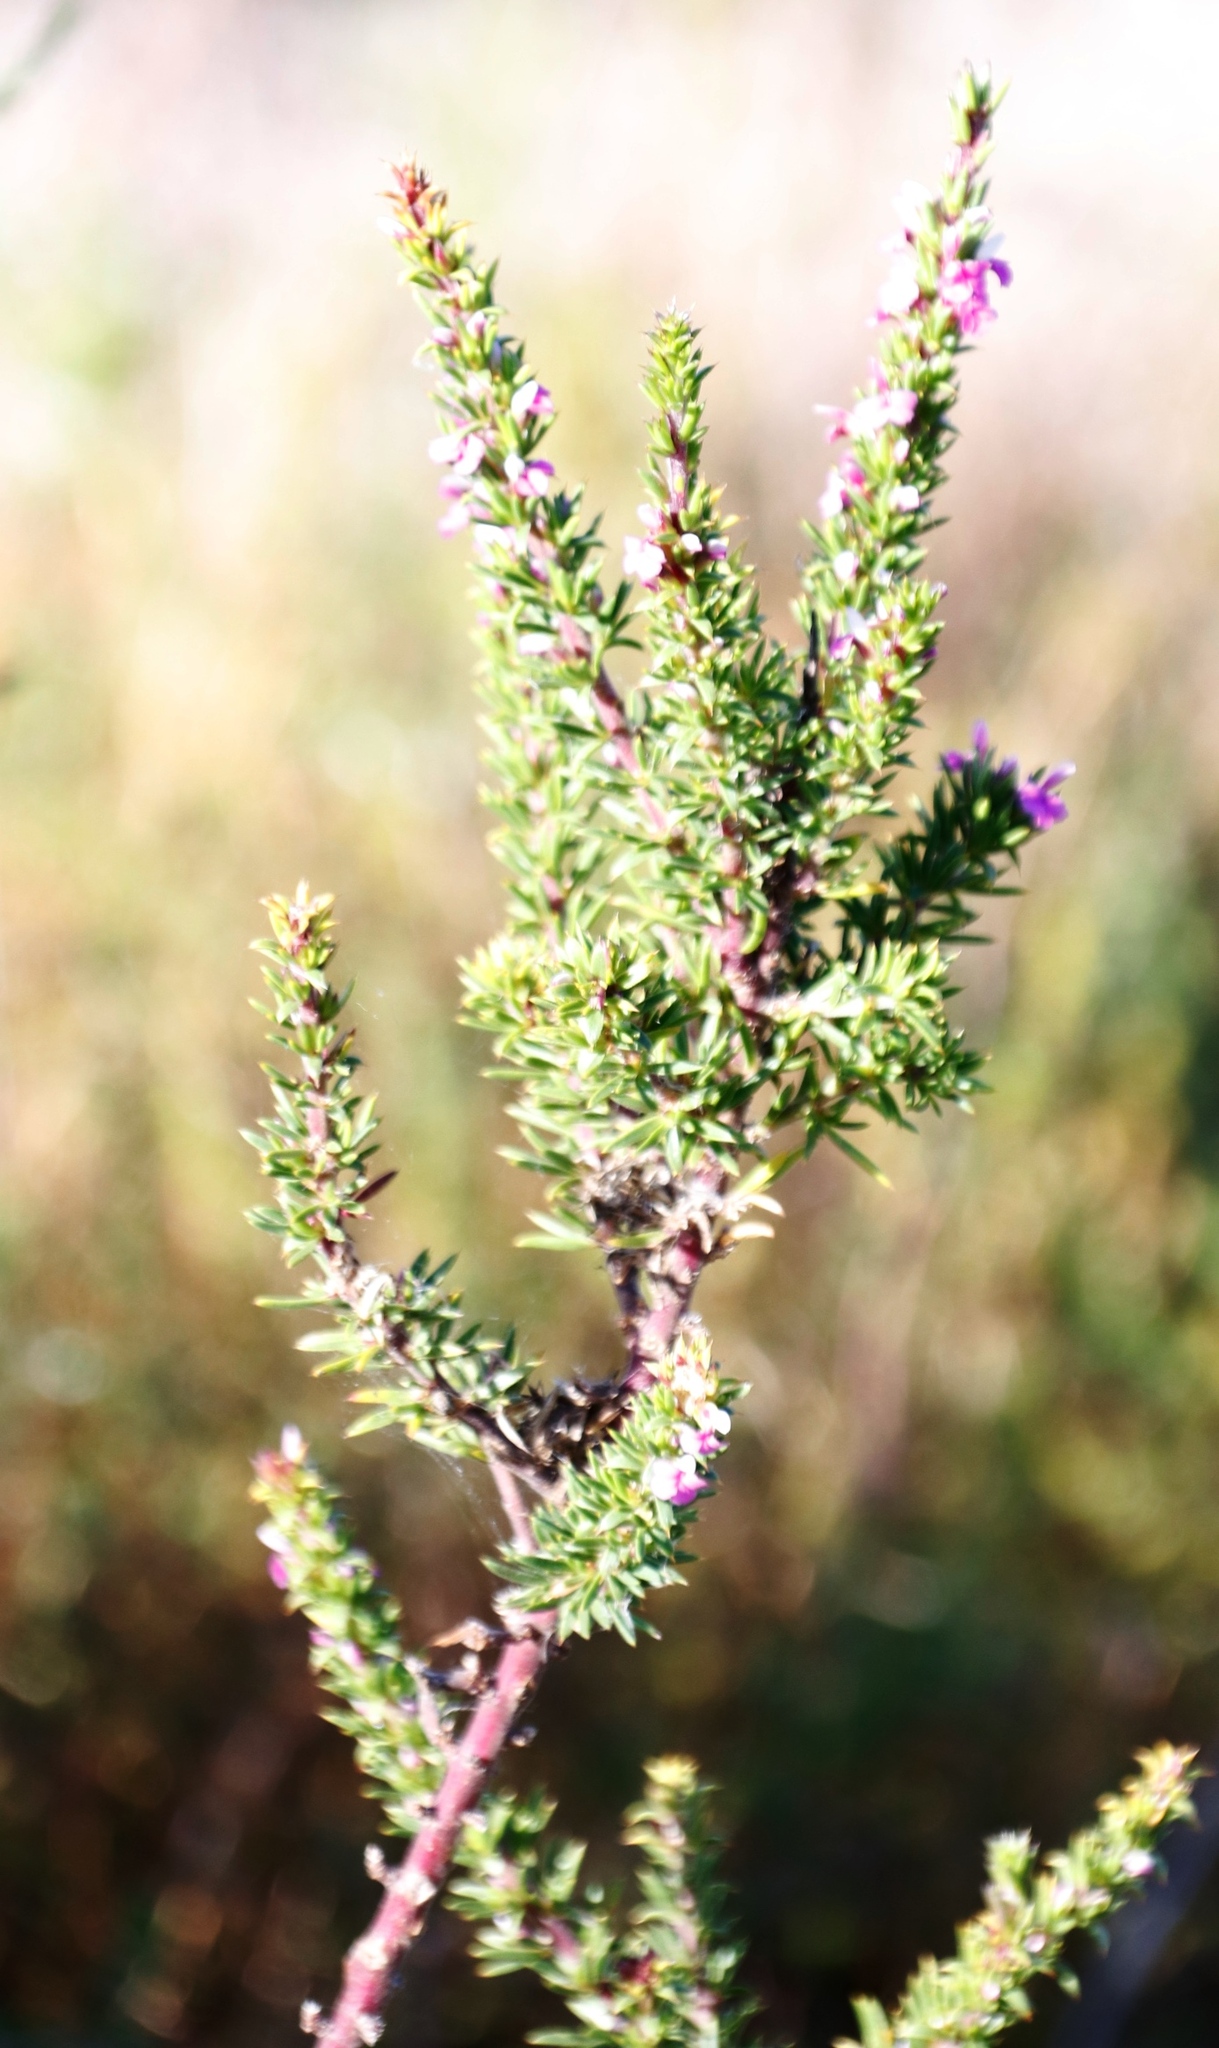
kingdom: Plantae
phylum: Tracheophyta
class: Magnoliopsida
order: Fabales
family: Polygalaceae
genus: Muraltia
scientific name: Muraltia heisteria
